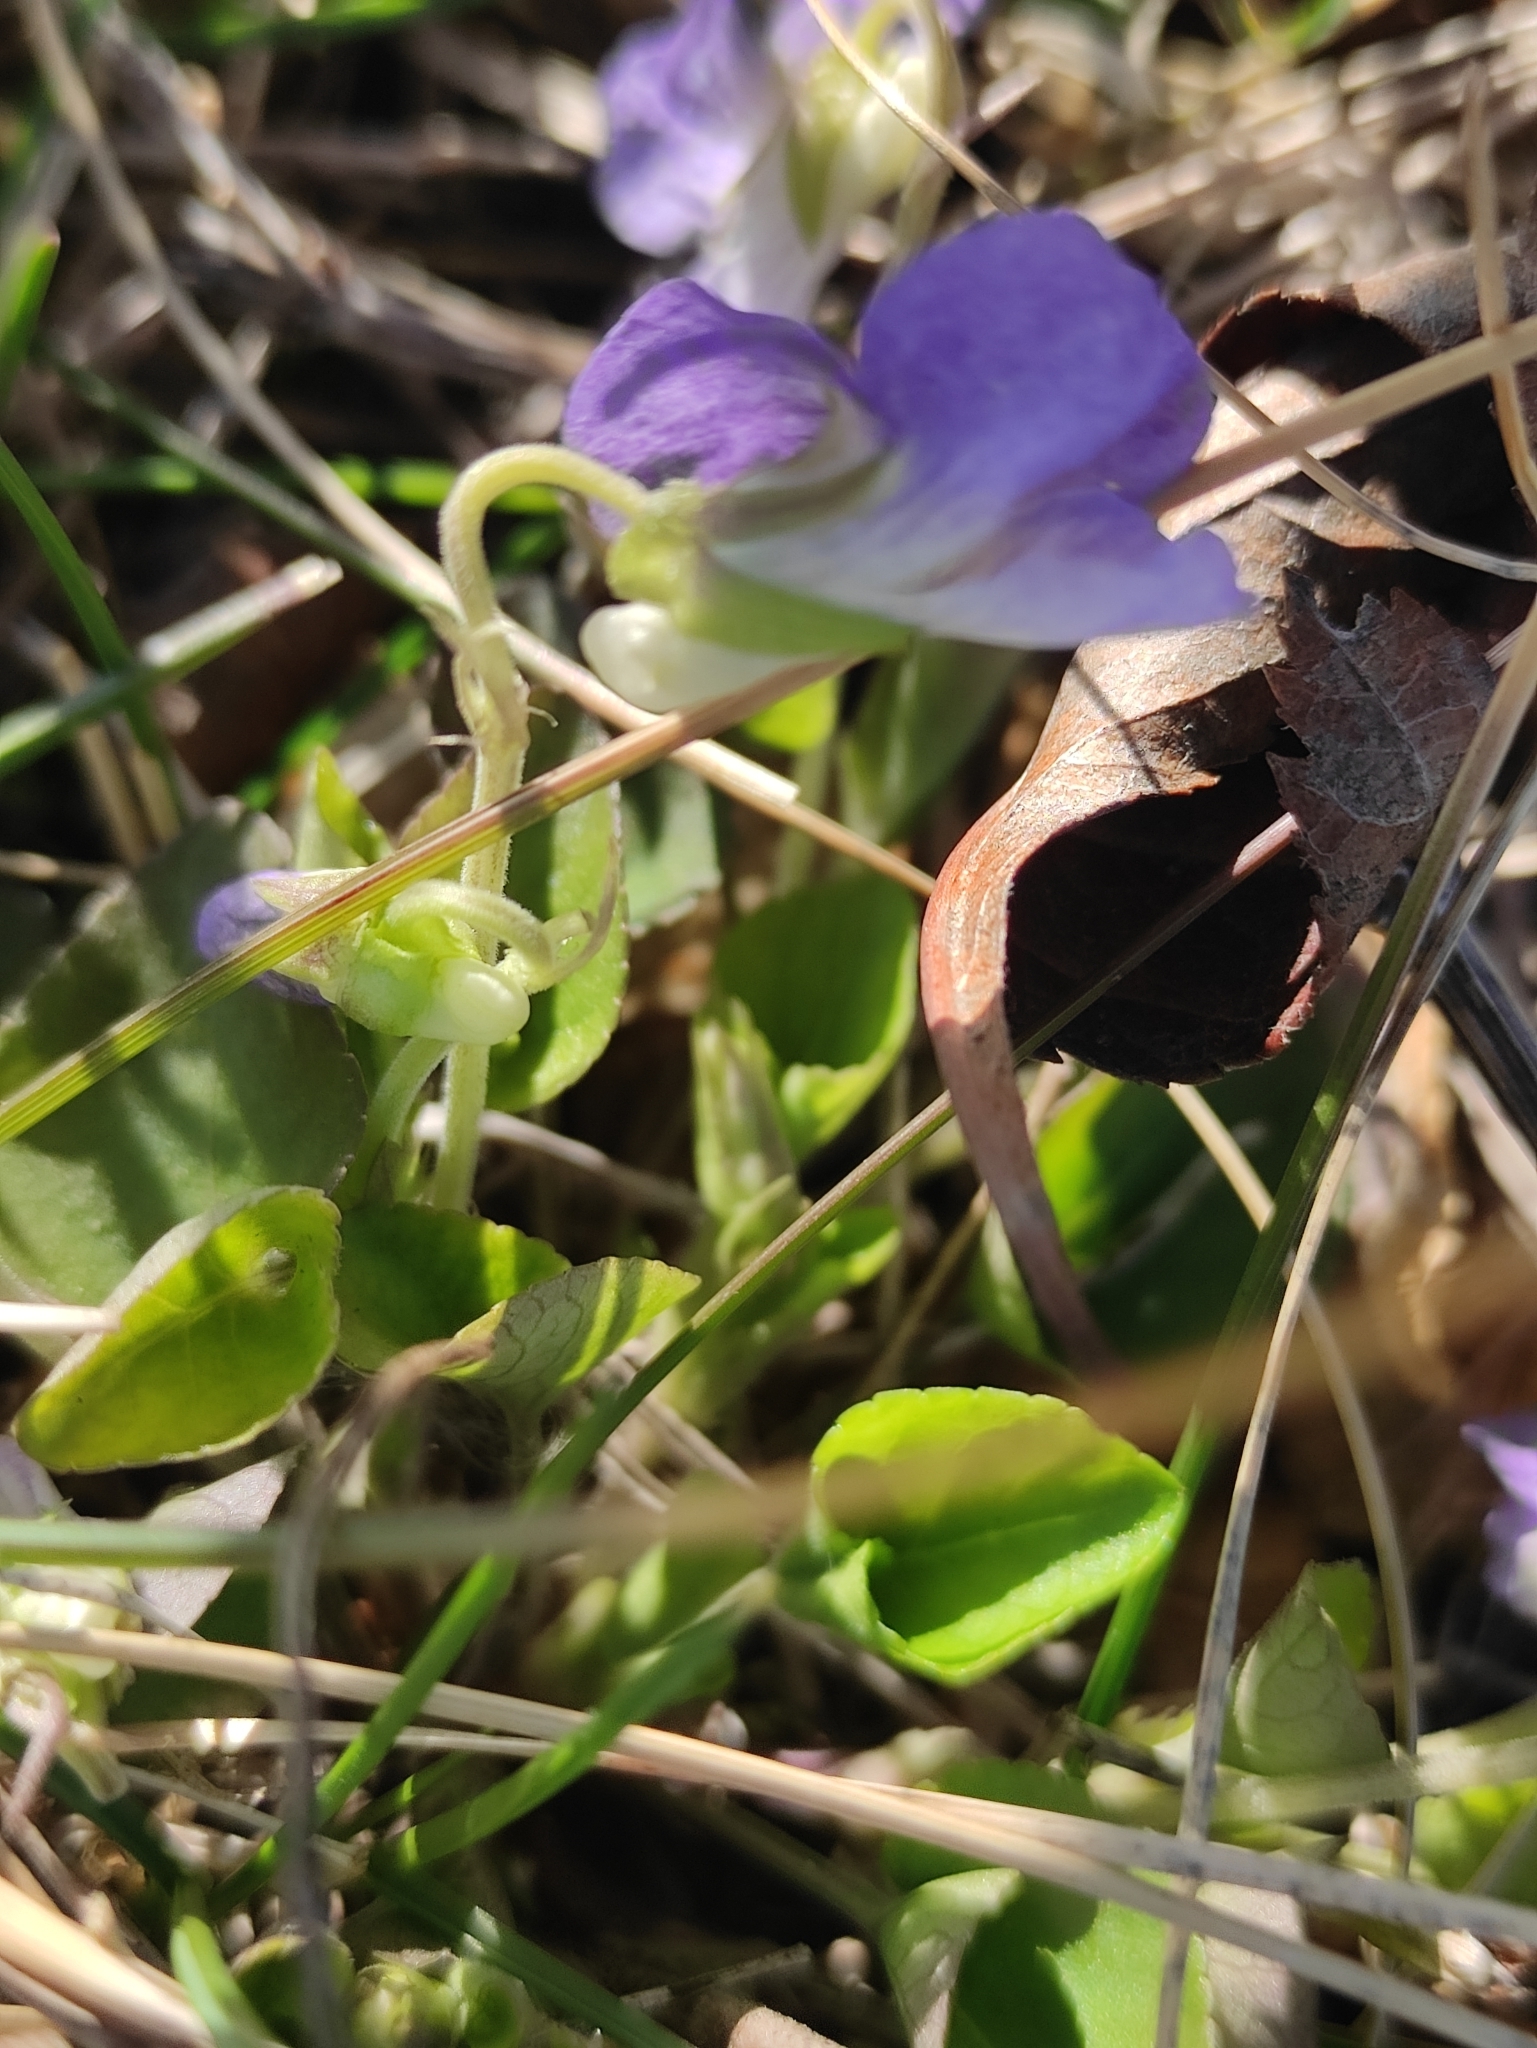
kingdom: Plantae
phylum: Tracheophyta
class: Magnoliopsida
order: Malpighiales
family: Violaceae
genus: Viola
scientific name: Viola rupestris
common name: Teesdale violet
